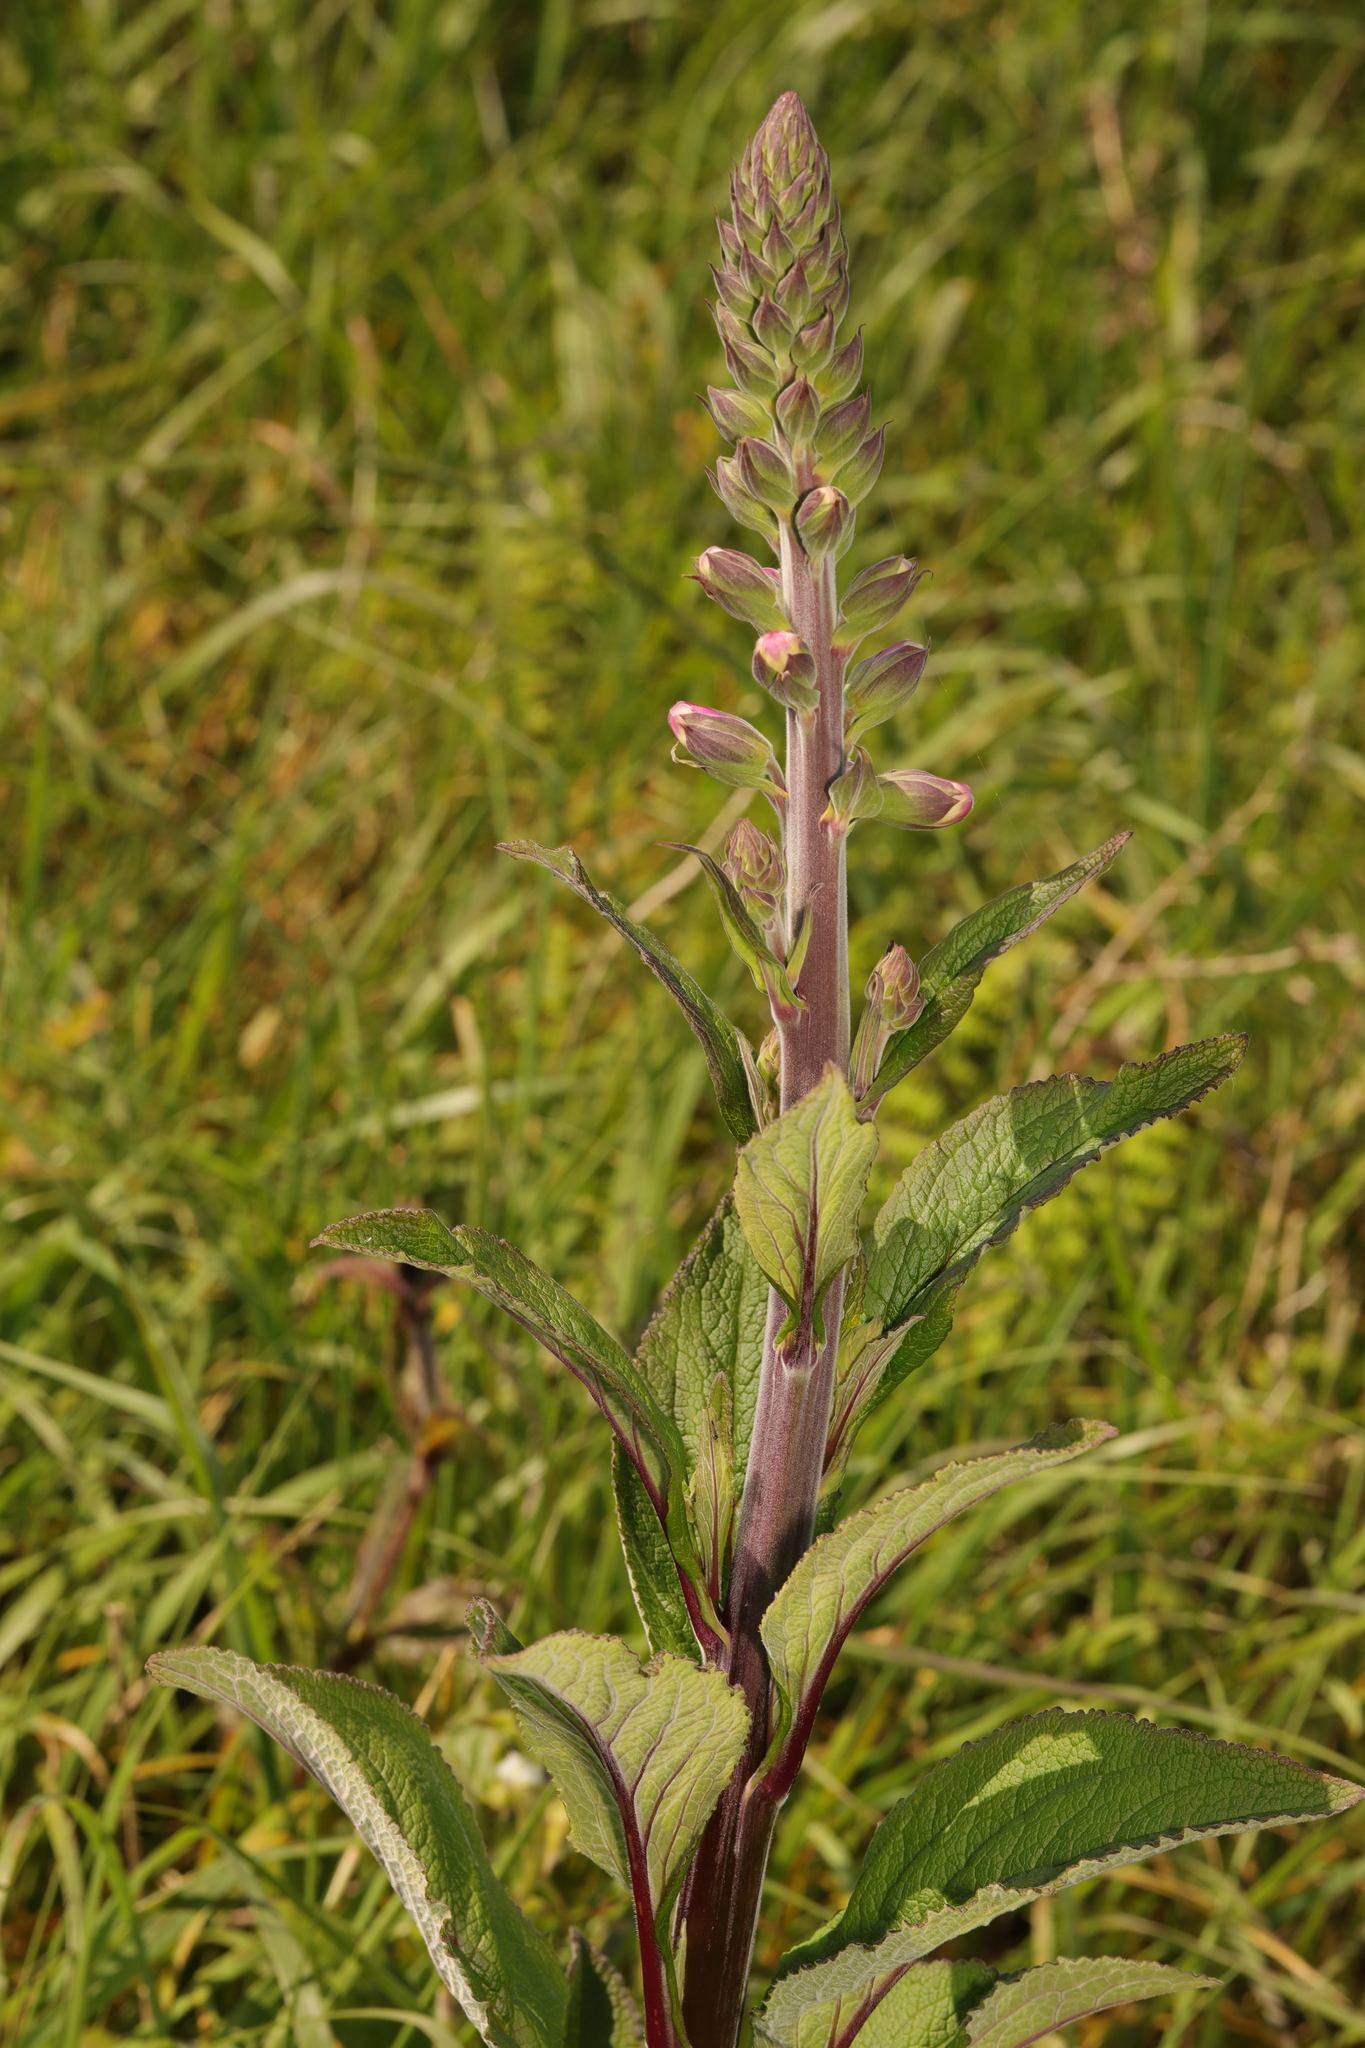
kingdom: Plantae
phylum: Tracheophyta
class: Magnoliopsida
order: Lamiales
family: Plantaginaceae
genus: Digitalis
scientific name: Digitalis purpurea
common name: Foxglove
